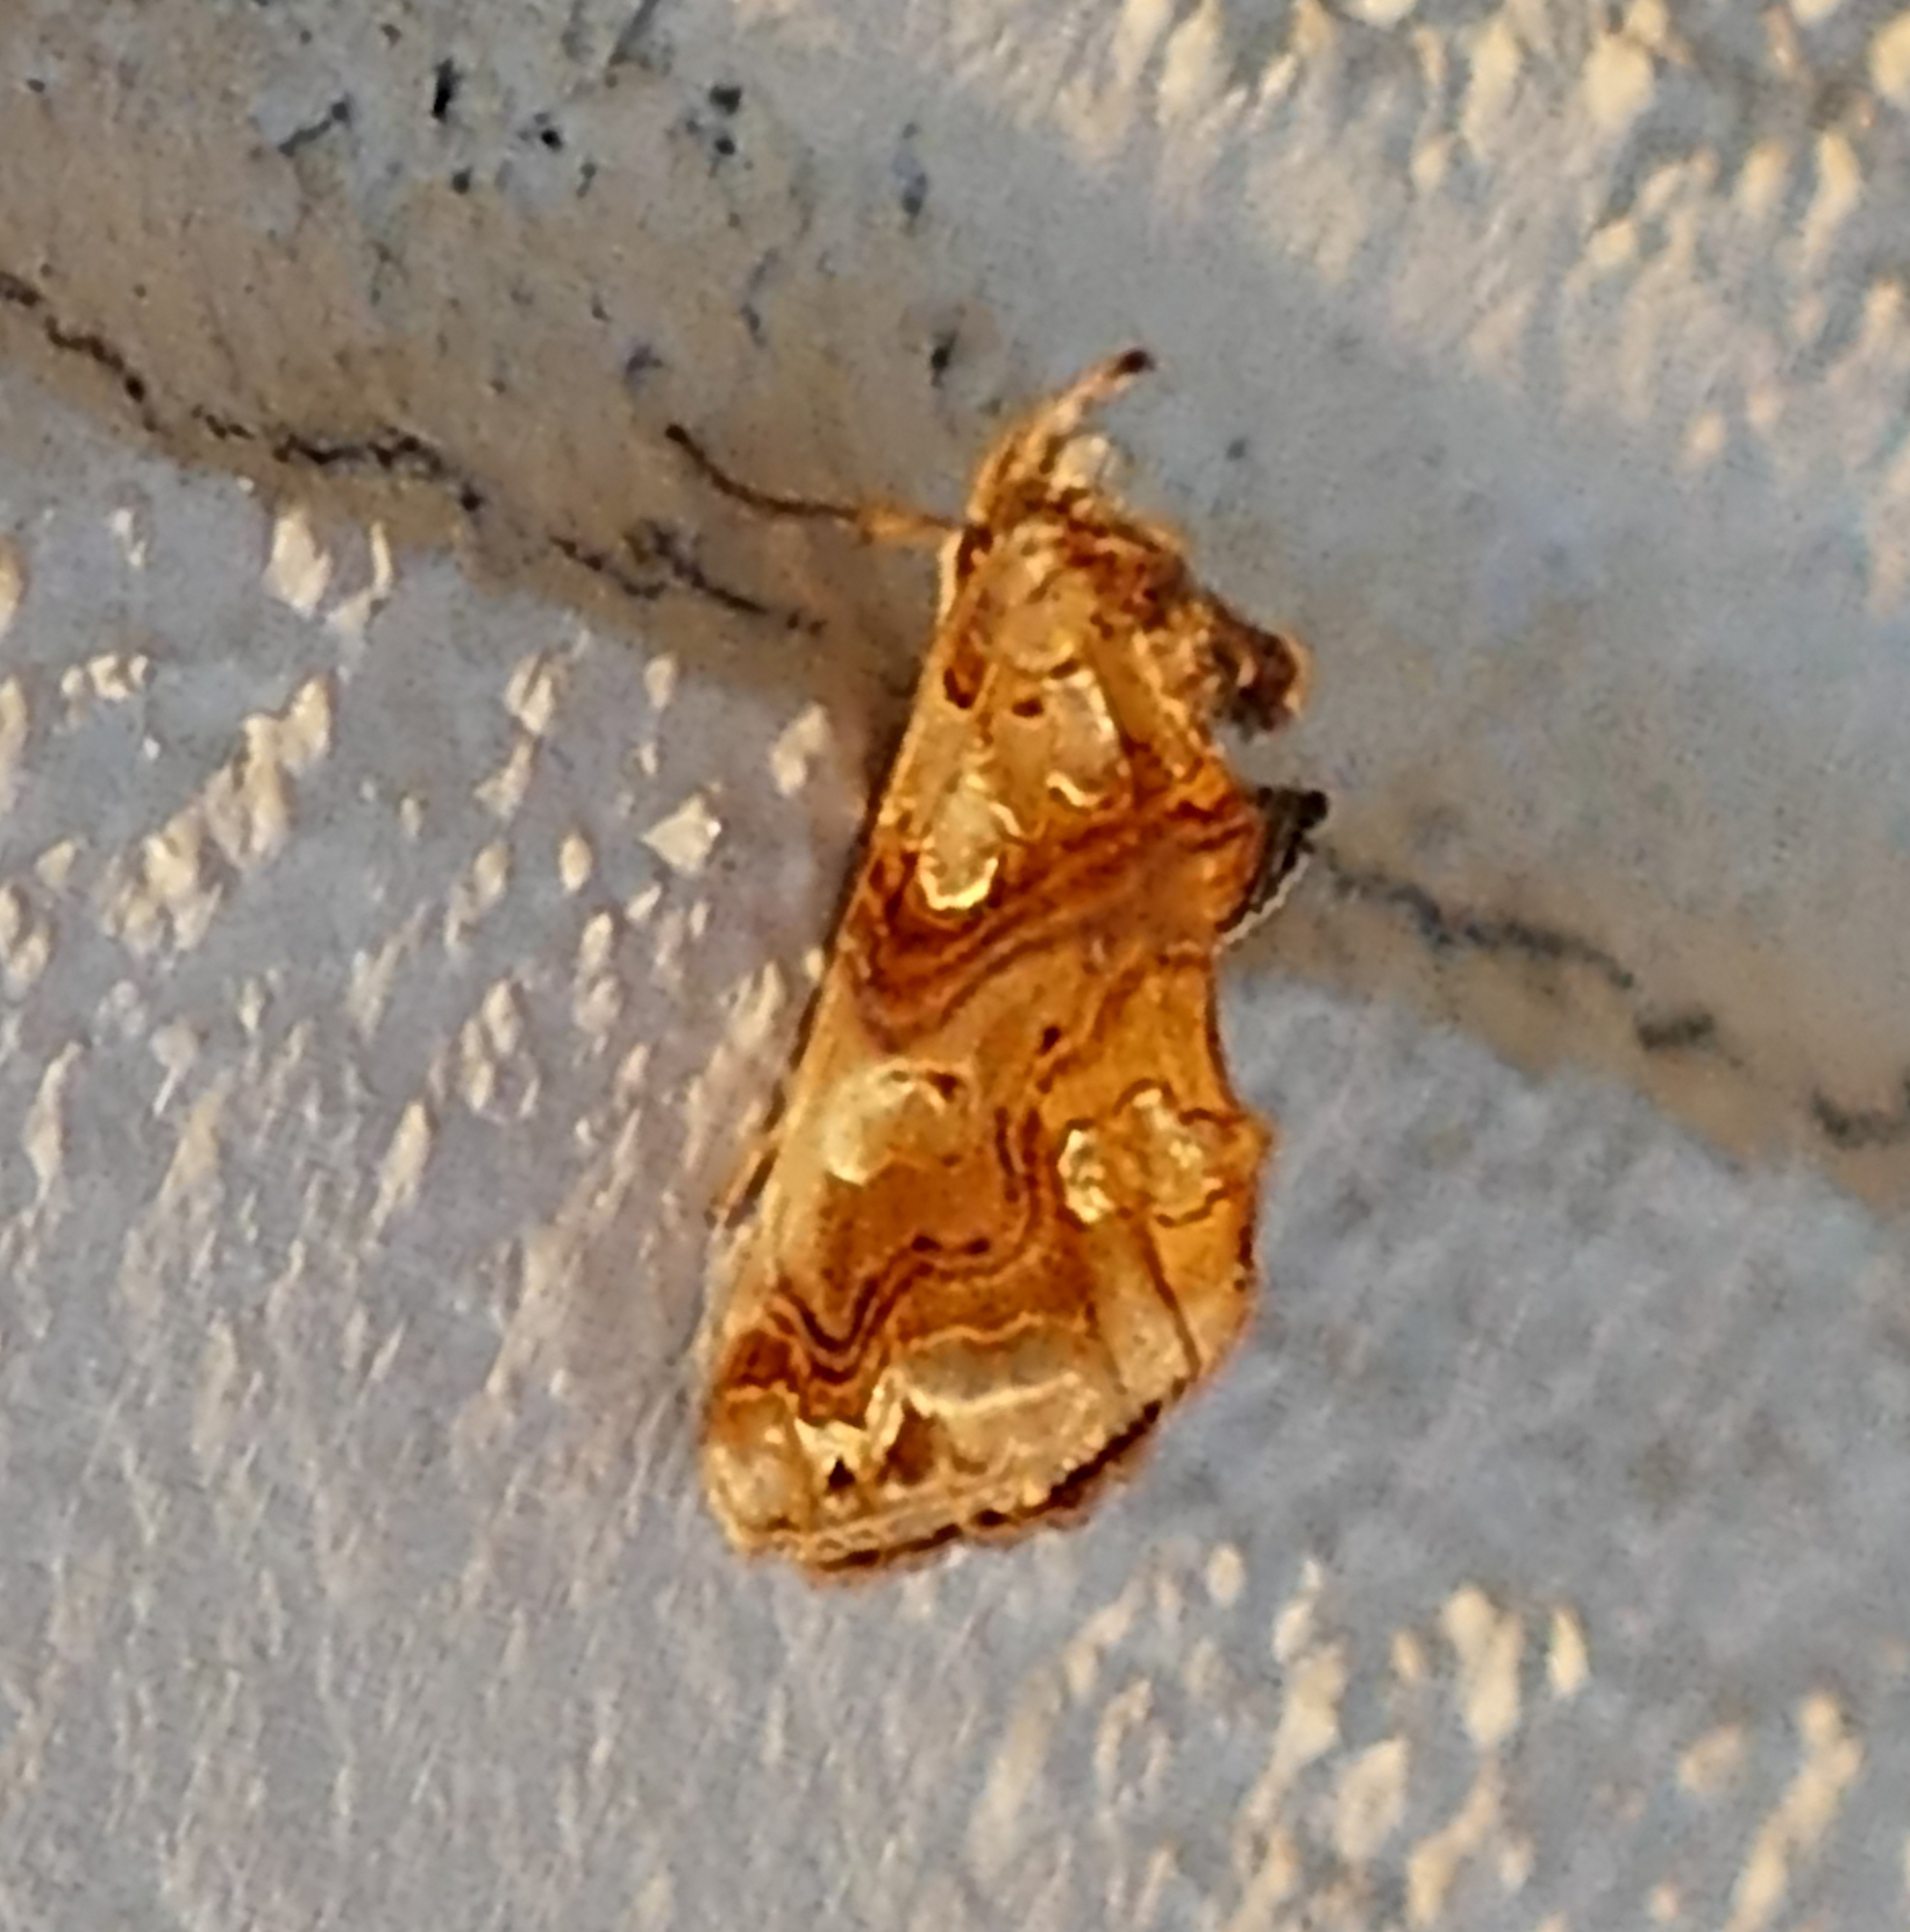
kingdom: Animalia
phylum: Arthropoda
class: Insecta
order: Lepidoptera
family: Erebidae
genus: Plusiodonta
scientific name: Plusiodonta compressipalpis
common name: Moonseed moth
